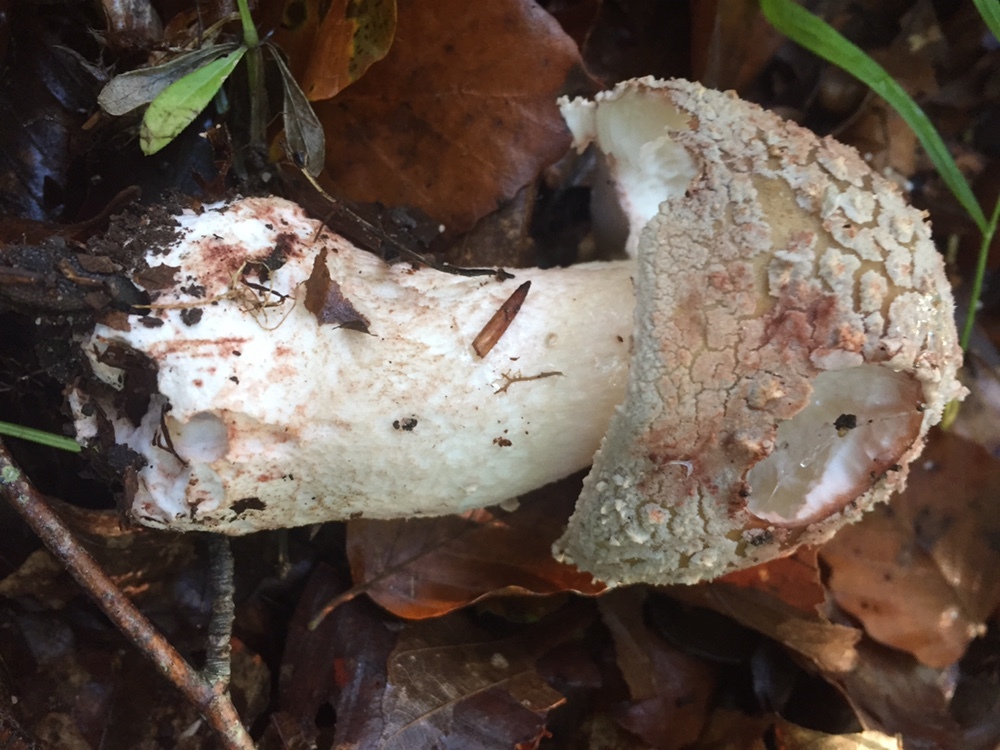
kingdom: Fungi
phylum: Basidiomycota
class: Agaricomycetes
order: Agaricales
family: Amanitaceae
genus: Amanita
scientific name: Amanita rubescens
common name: Blusher
